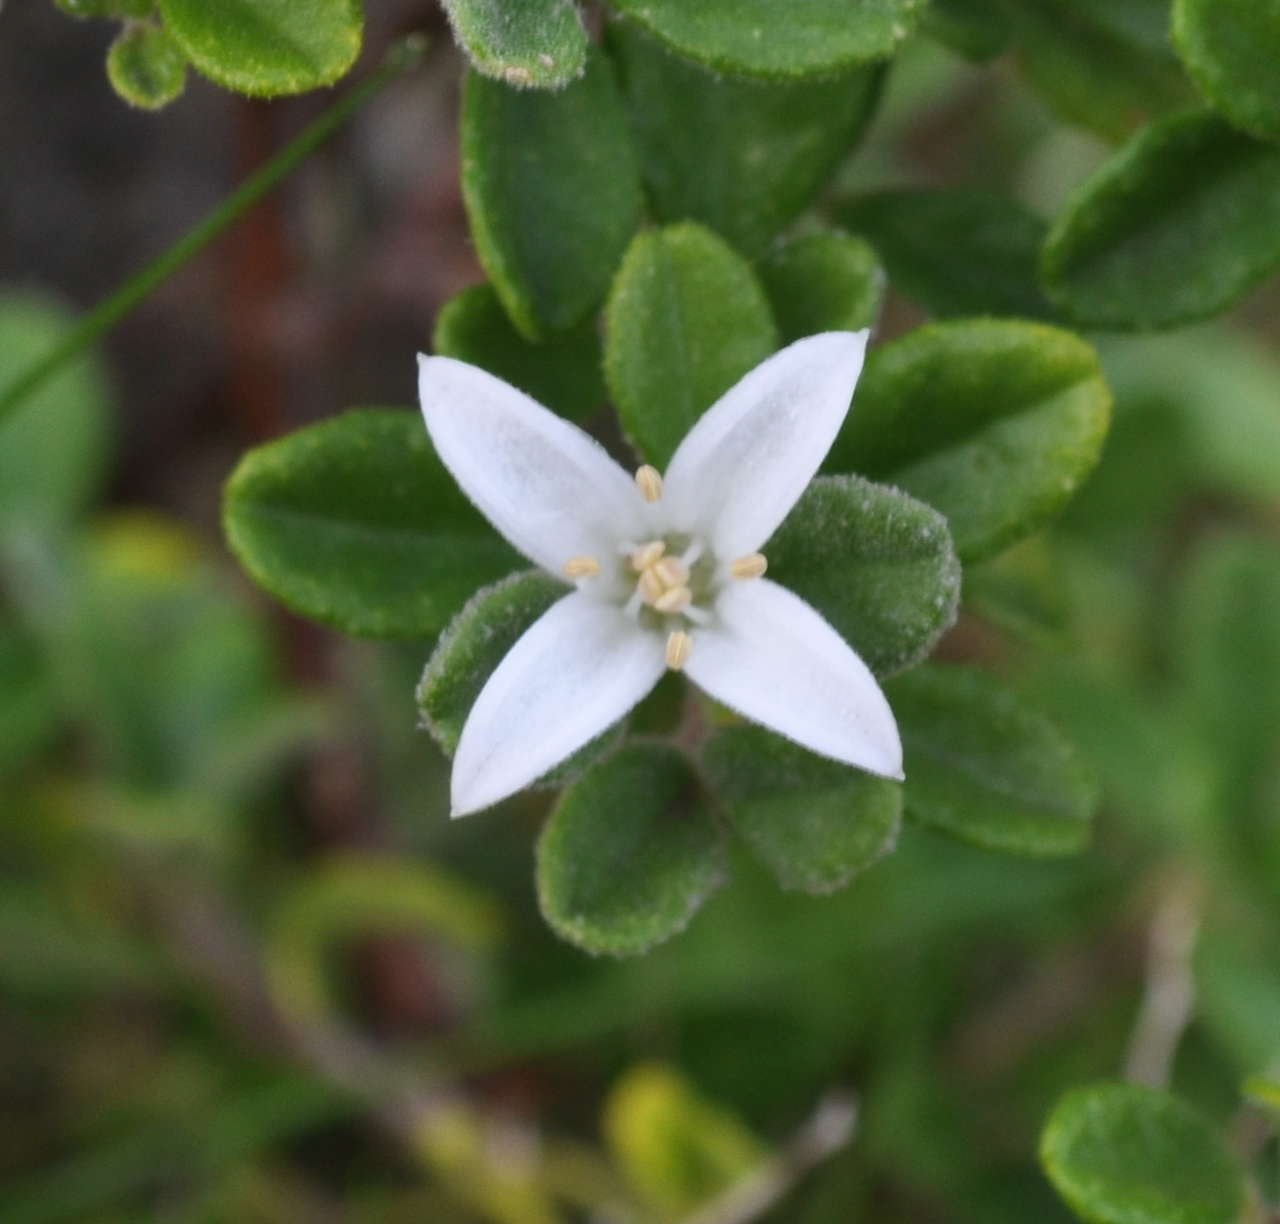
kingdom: Plantae
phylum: Tracheophyta
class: Magnoliopsida
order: Sapindales
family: Rutaceae
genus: Correa
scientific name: Correa alba
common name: White correa
